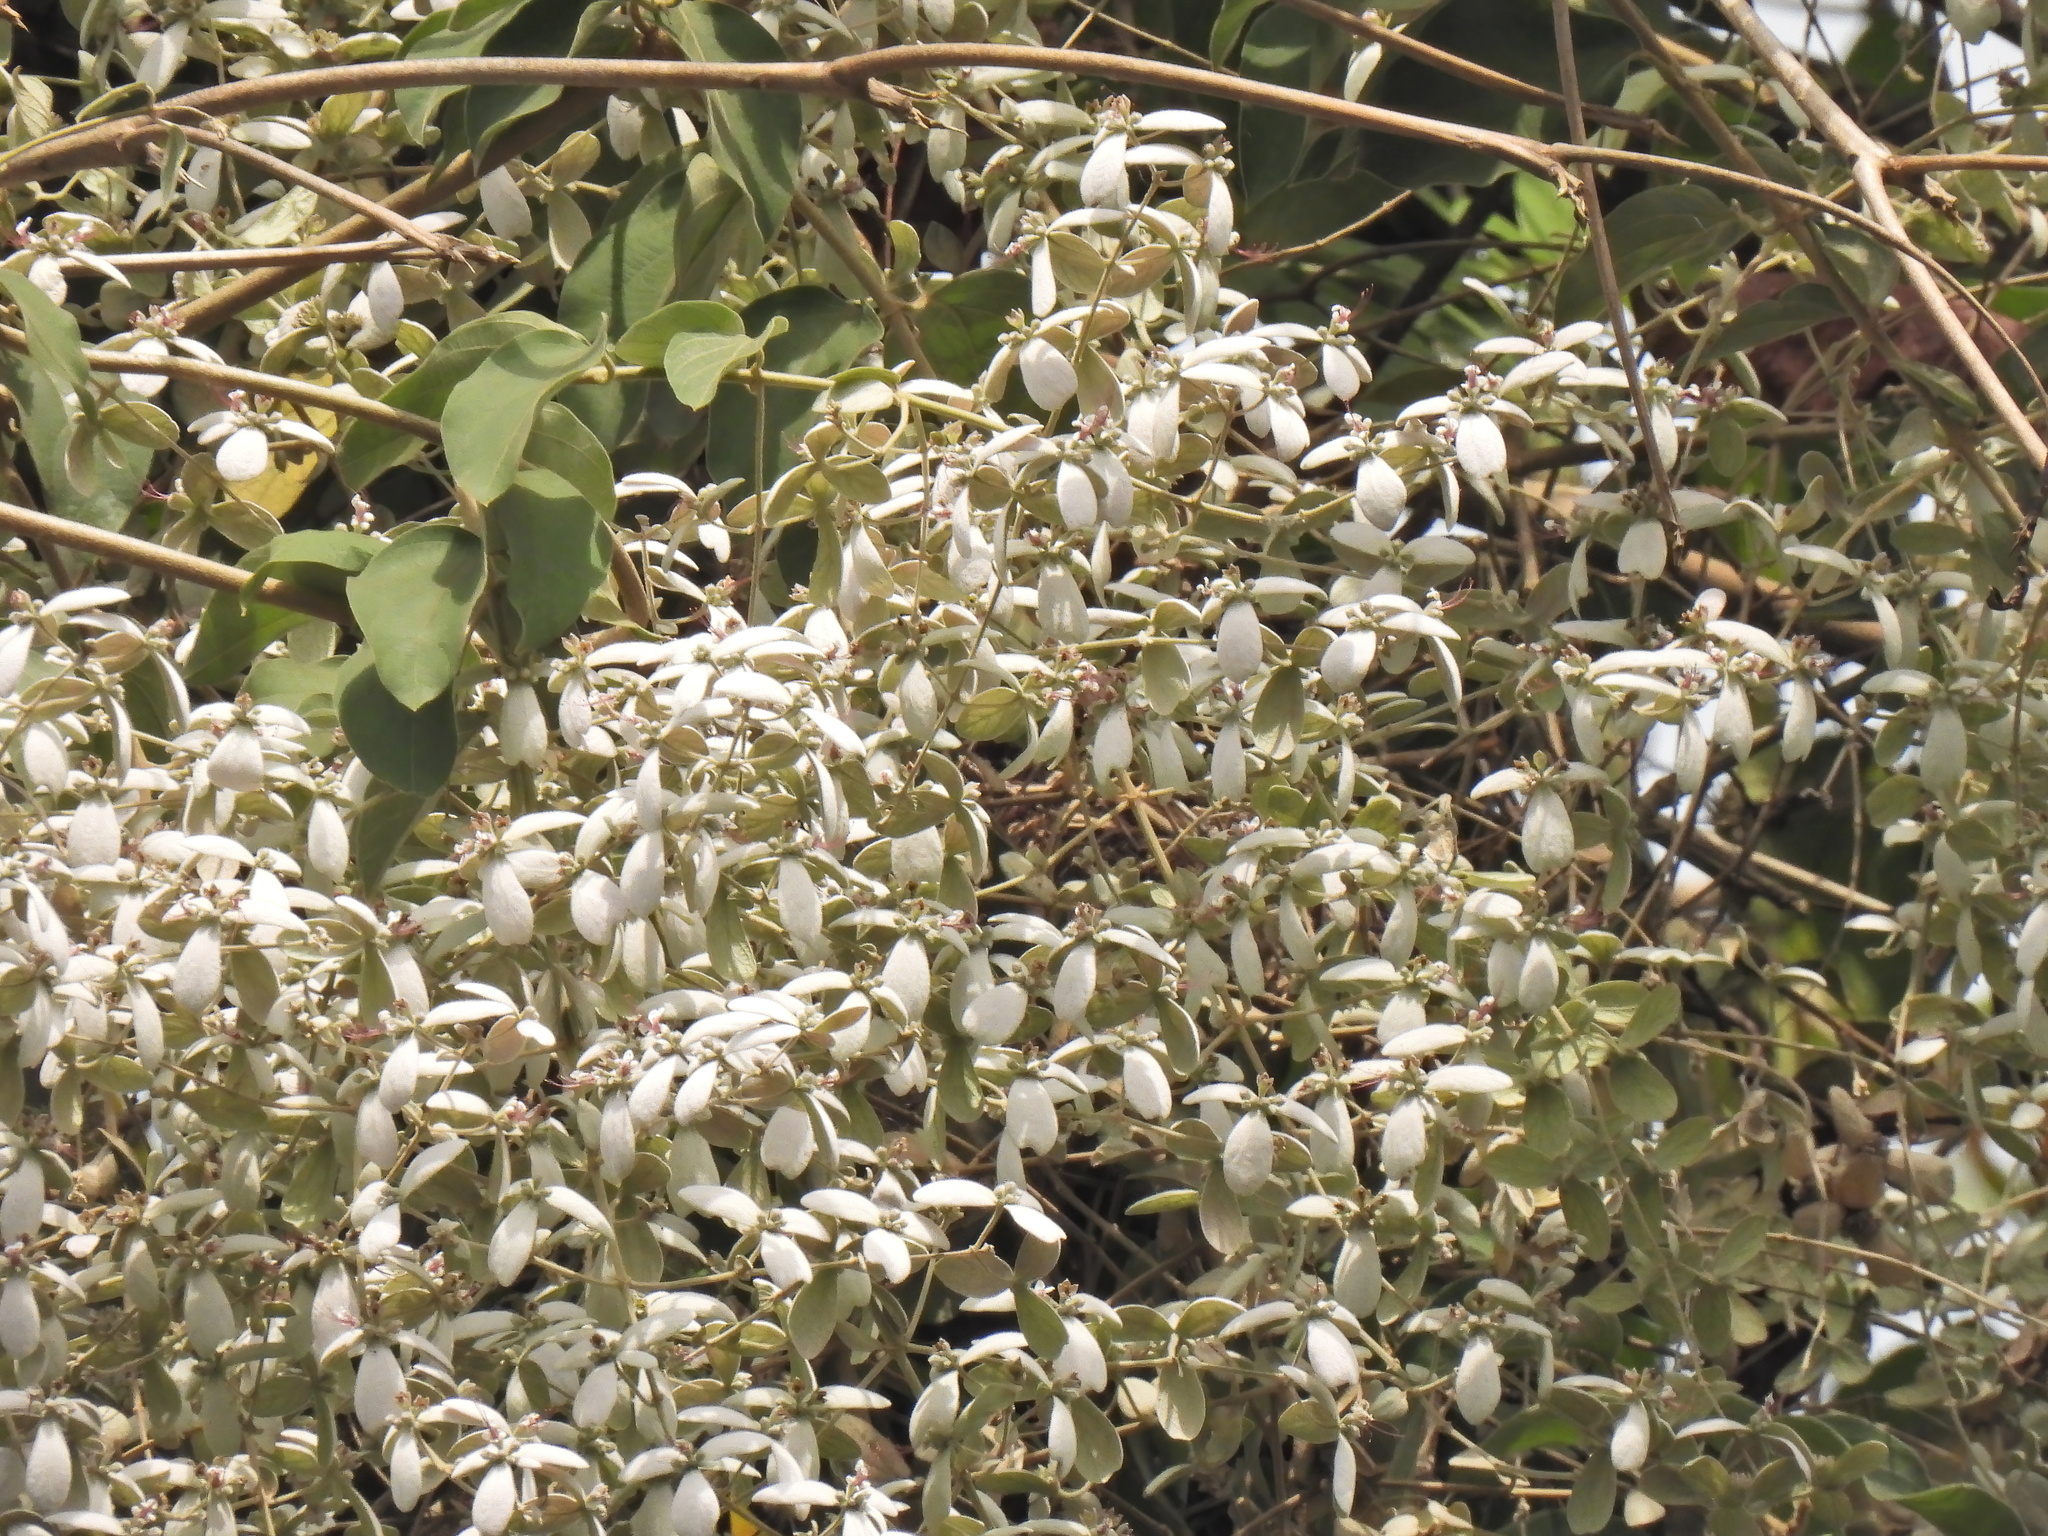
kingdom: Plantae
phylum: Tracheophyta
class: Magnoliopsida
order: Lamiales
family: Lamiaceae
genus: Congea
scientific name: Congea tomentosa
